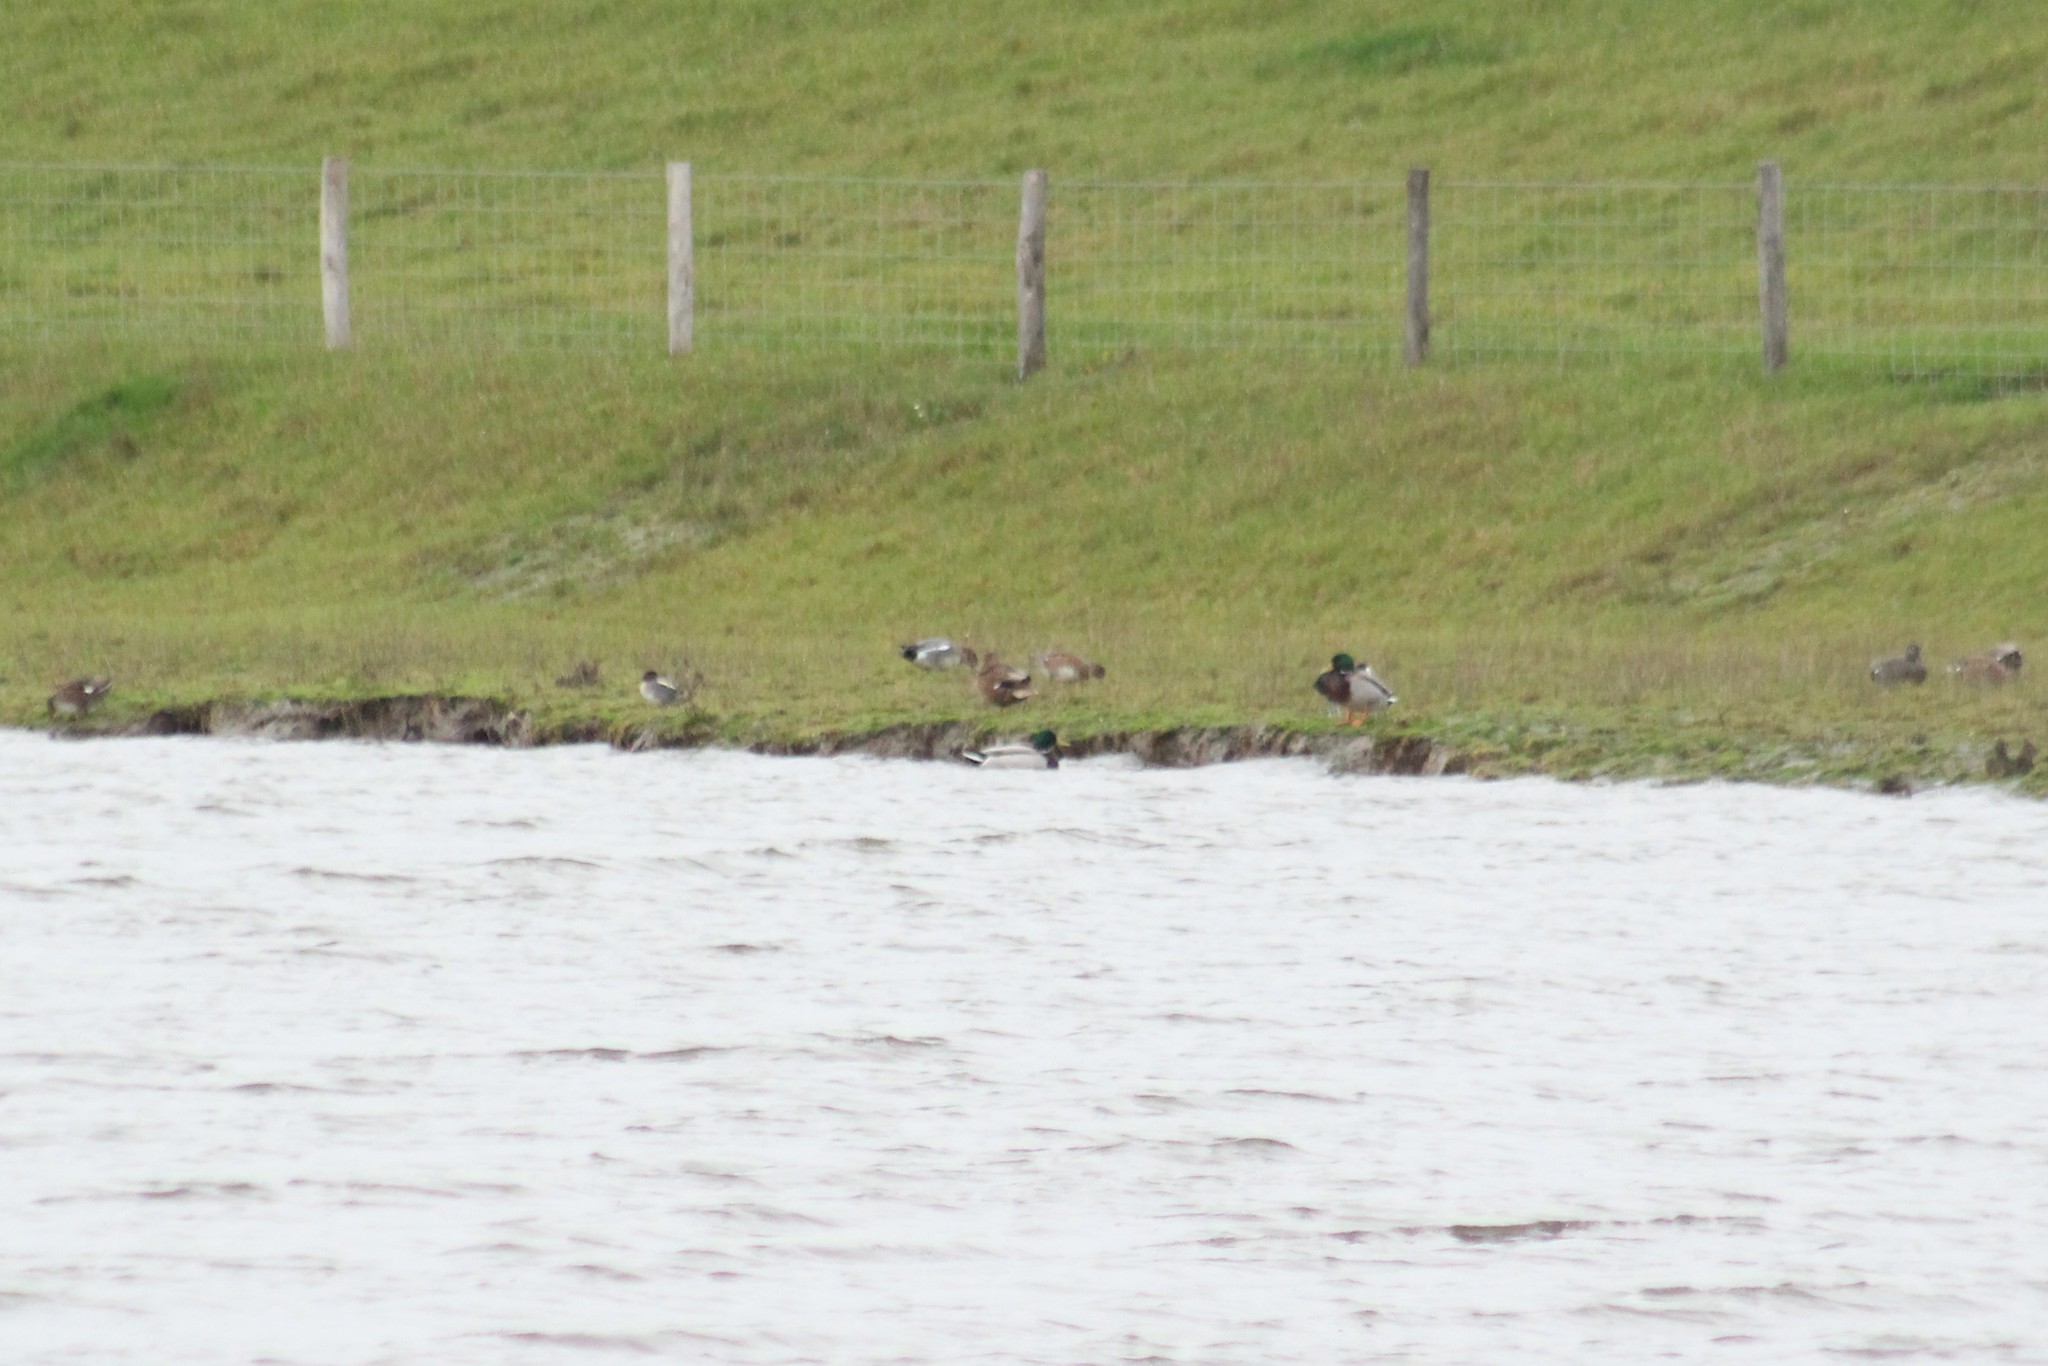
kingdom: Animalia
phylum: Chordata
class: Aves
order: Anseriformes
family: Anatidae
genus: Anas
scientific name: Anas platyrhynchos
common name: Mallard
